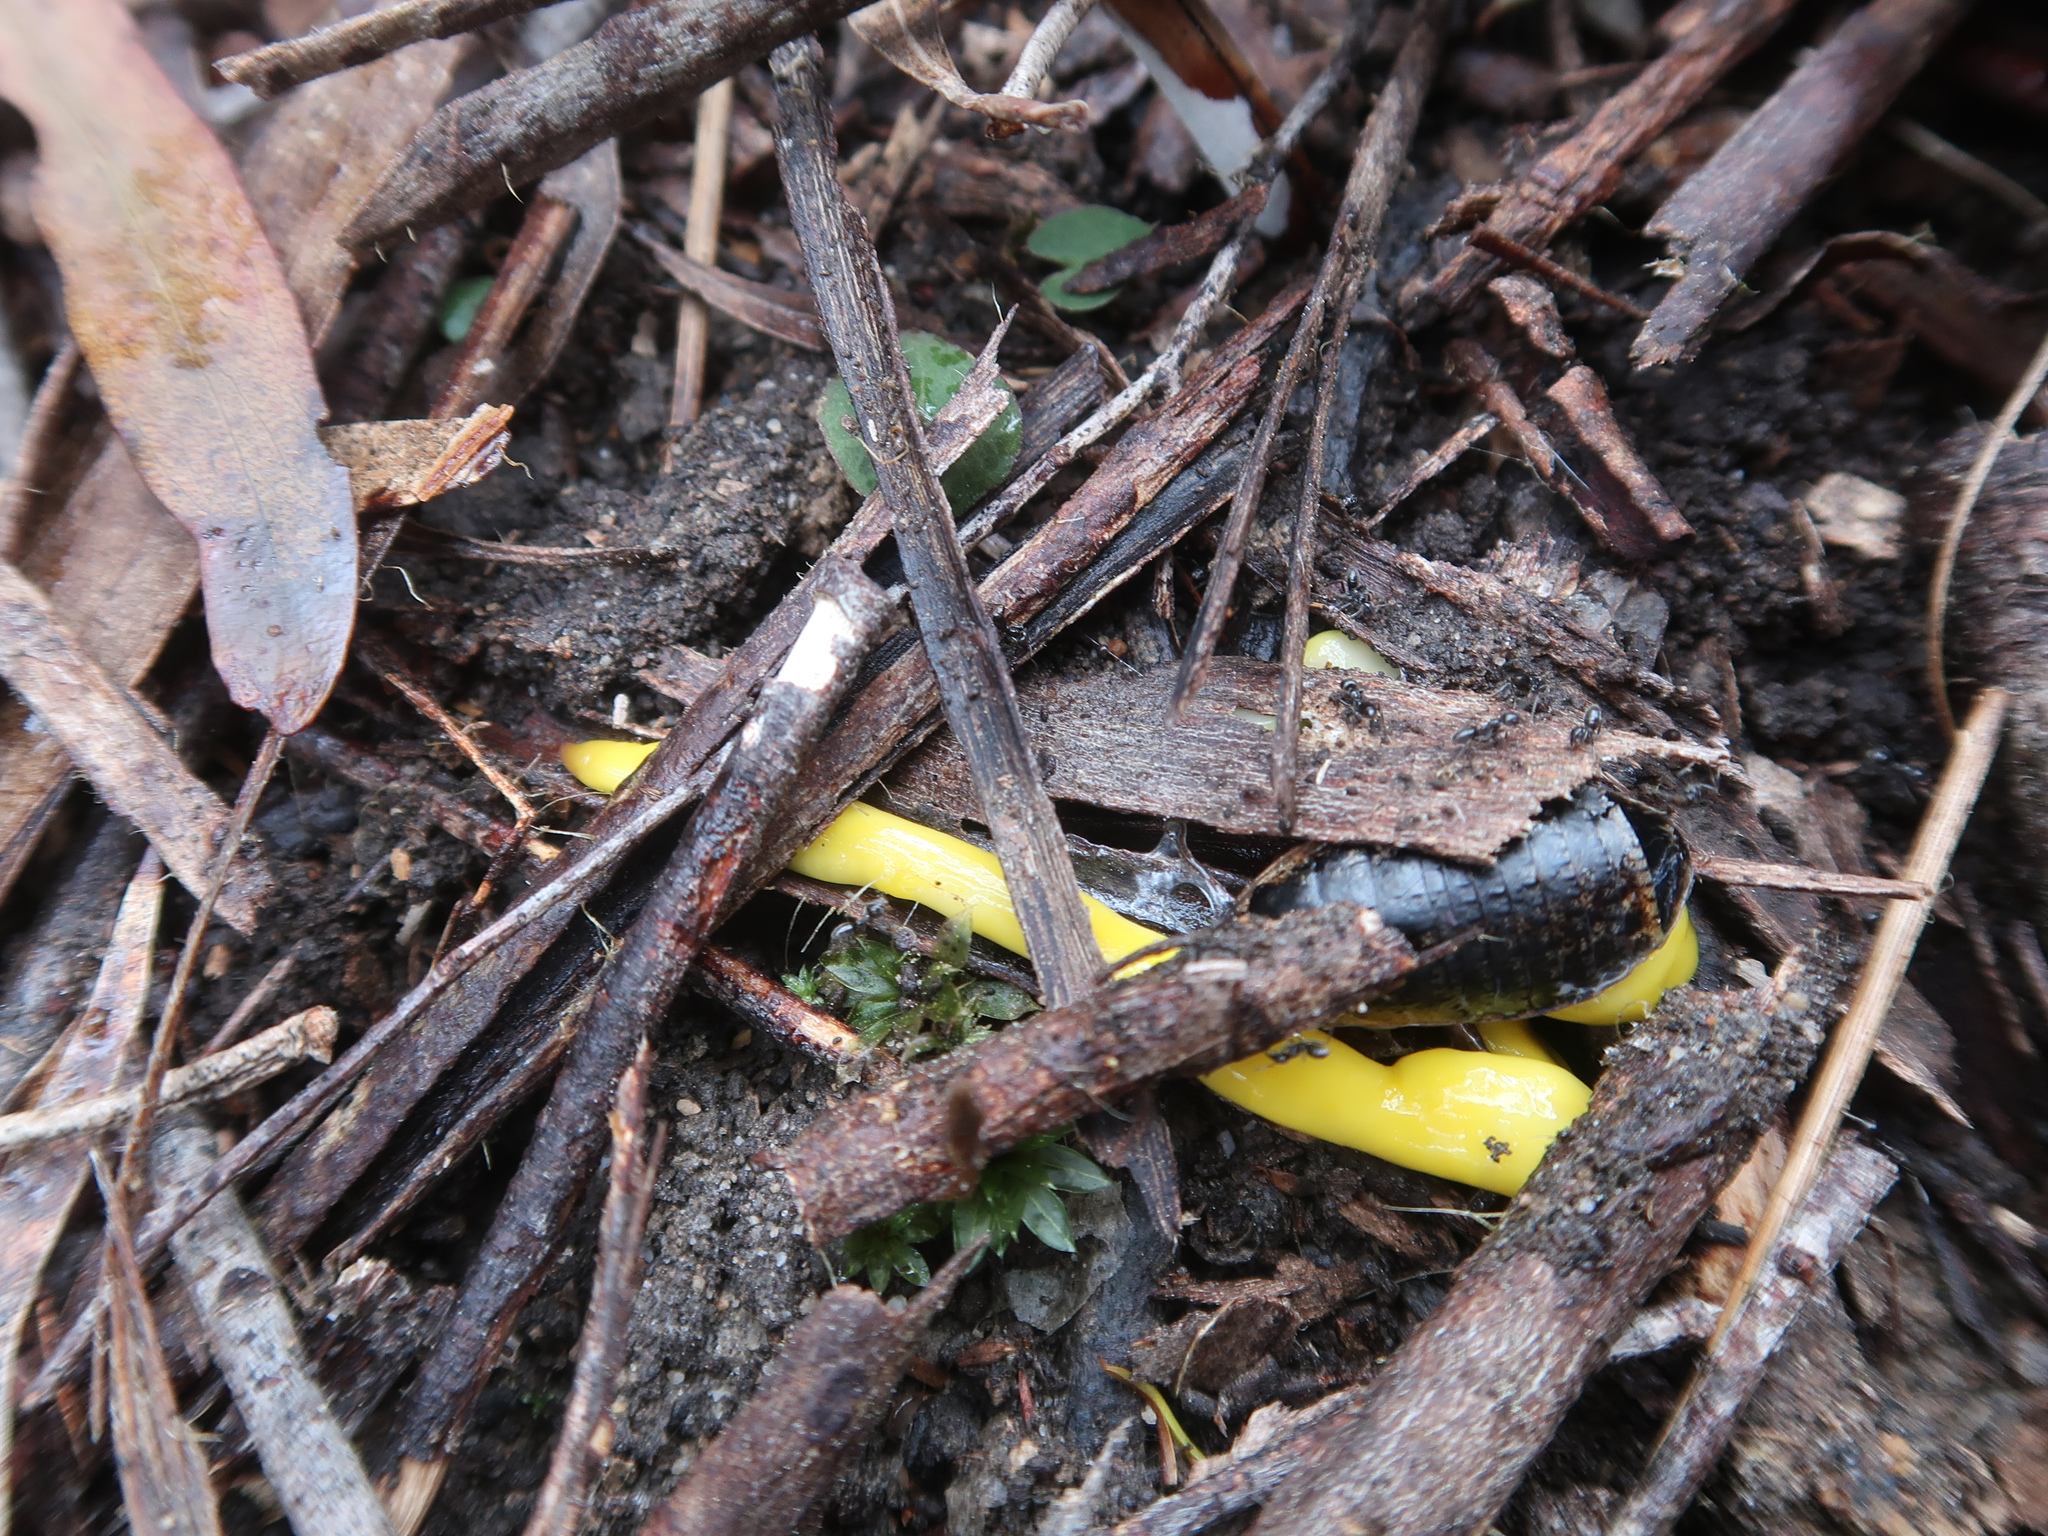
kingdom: Animalia
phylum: Platyhelminthes
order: Tricladida
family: Geoplanidae
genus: Fletchamia
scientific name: Fletchamia sugdeni
